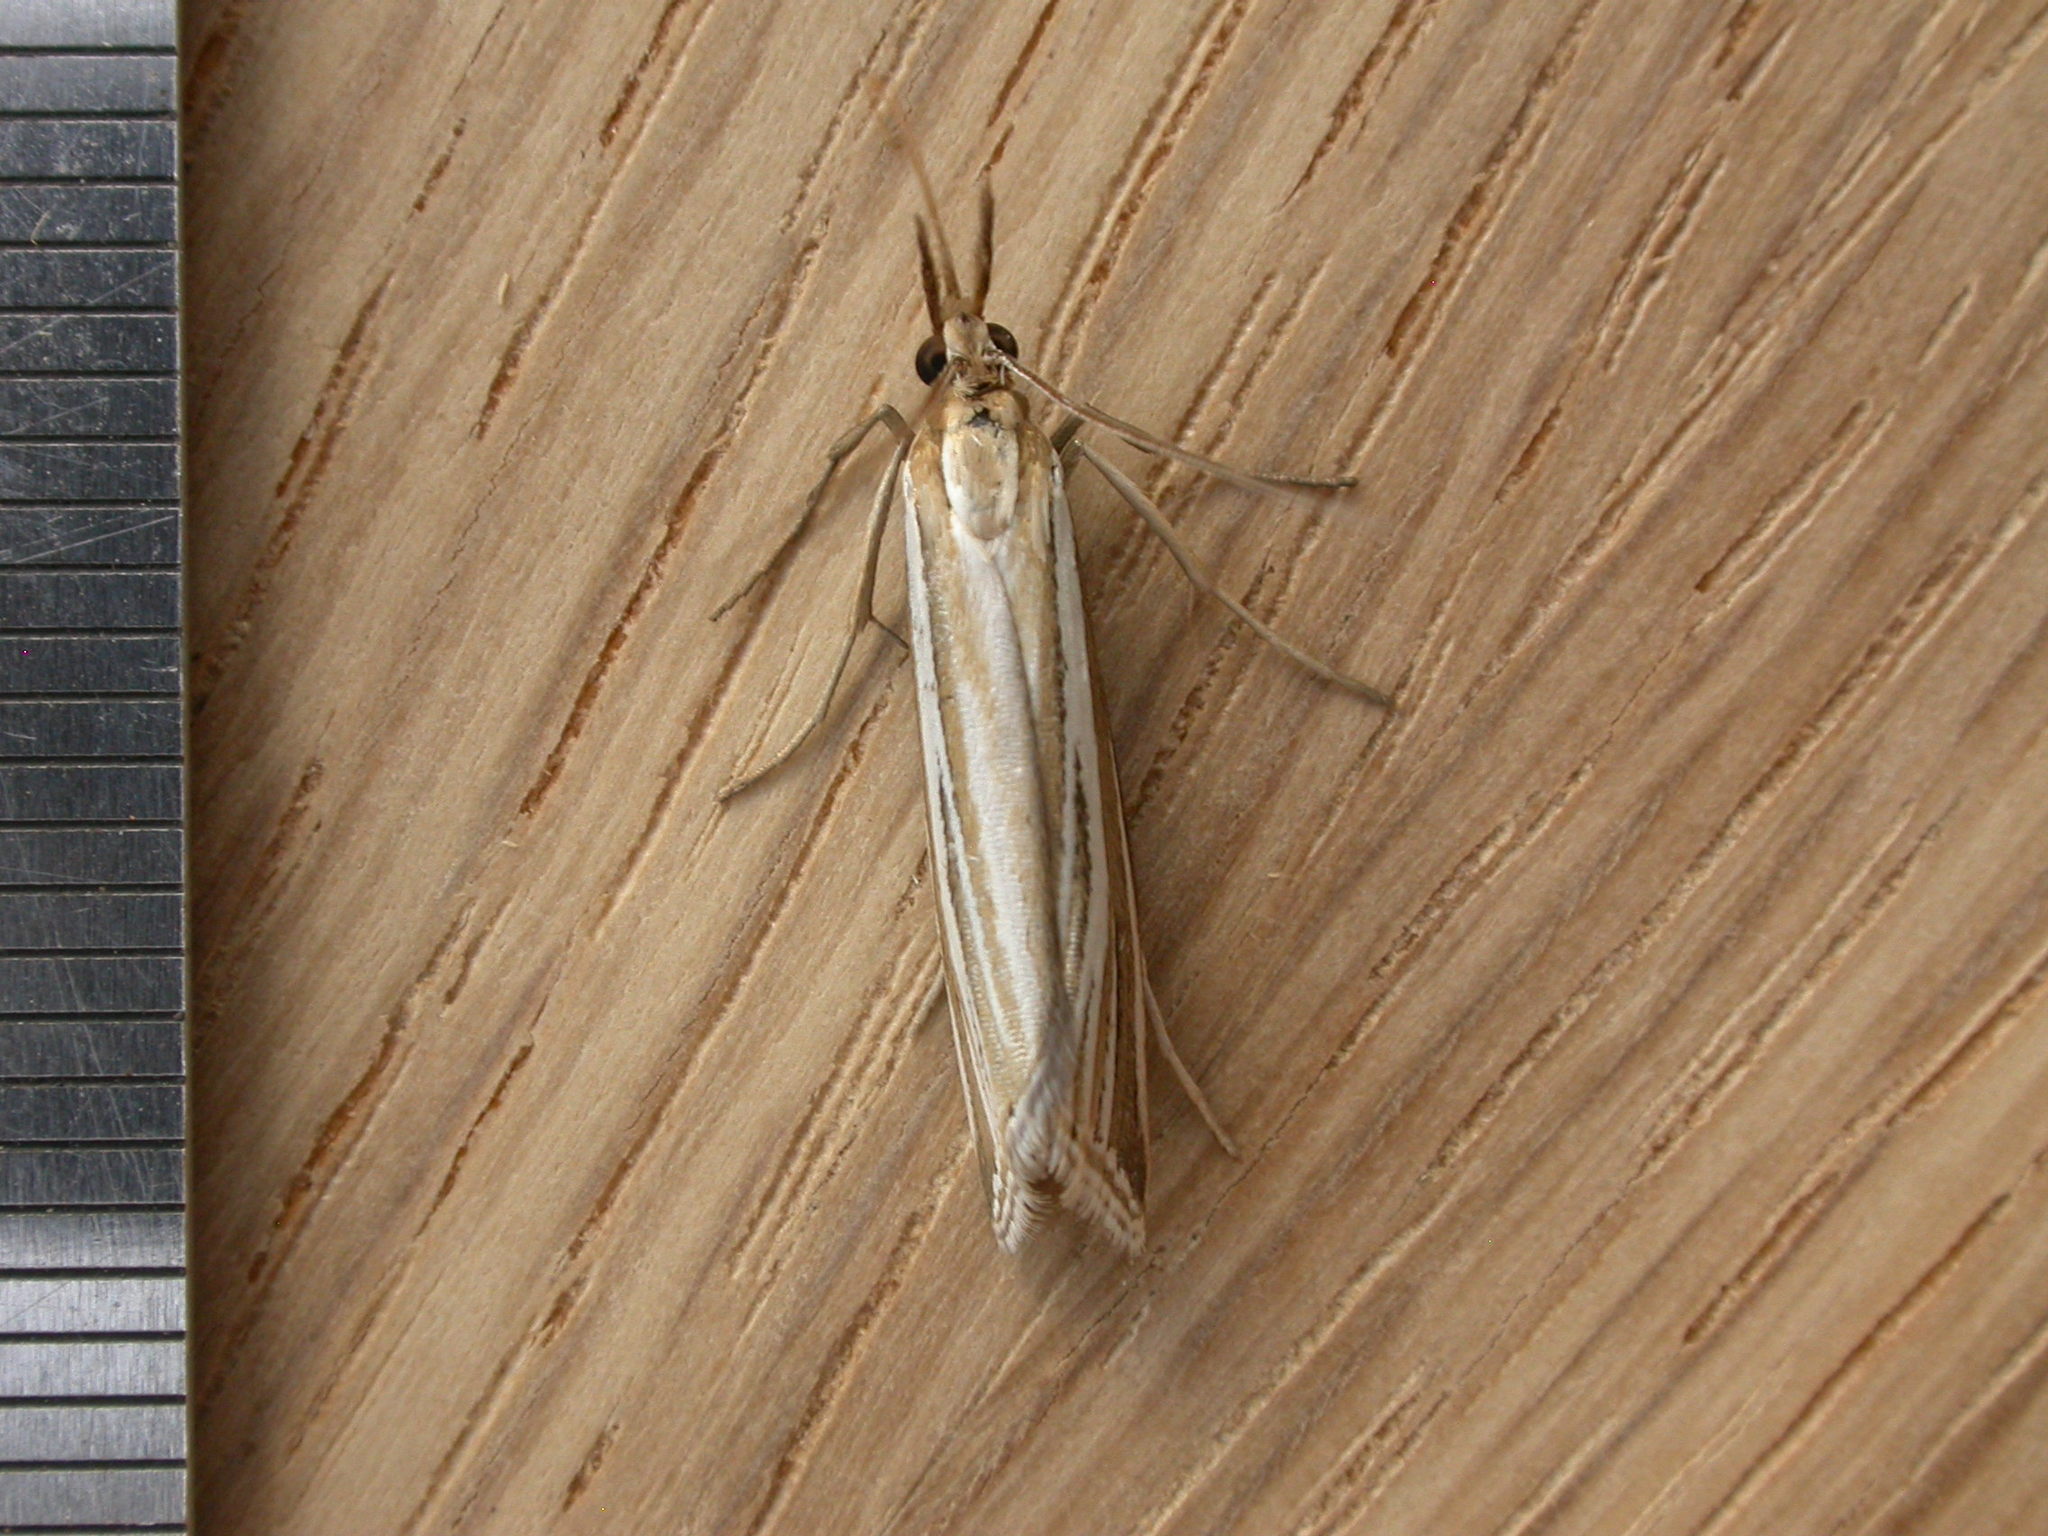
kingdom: Animalia
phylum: Arthropoda
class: Insecta
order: Lepidoptera
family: Crambidae
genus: Hednota
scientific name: Hednota relatalis
